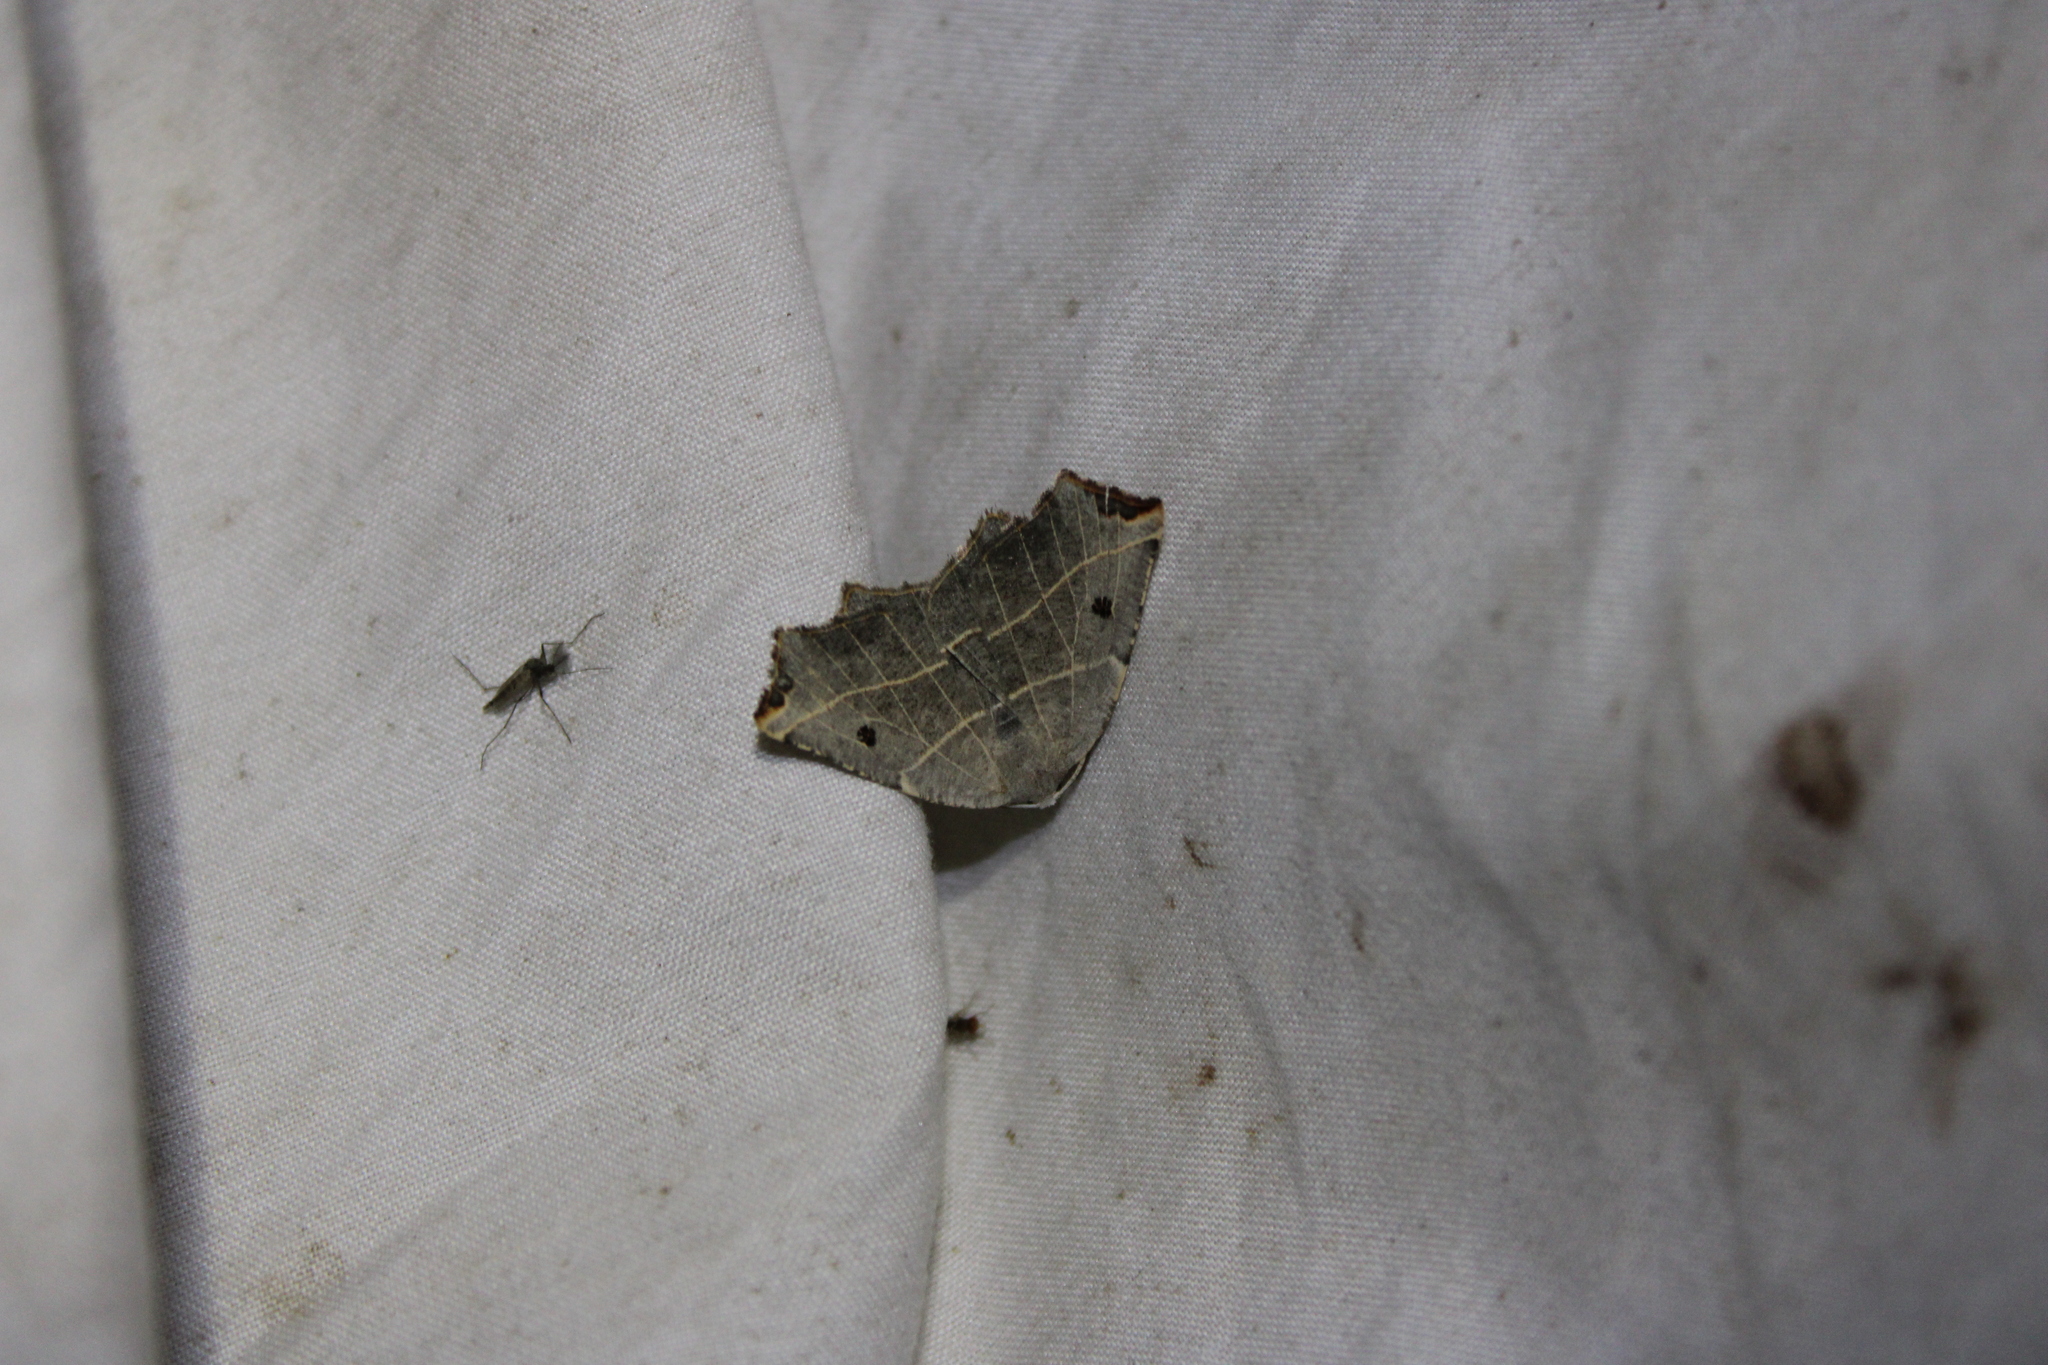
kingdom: Animalia
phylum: Arthropoda
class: Insecta
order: Lepidoptera
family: Geometridae
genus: Metanema
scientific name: Metanema inatomaria
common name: Pale metanema
